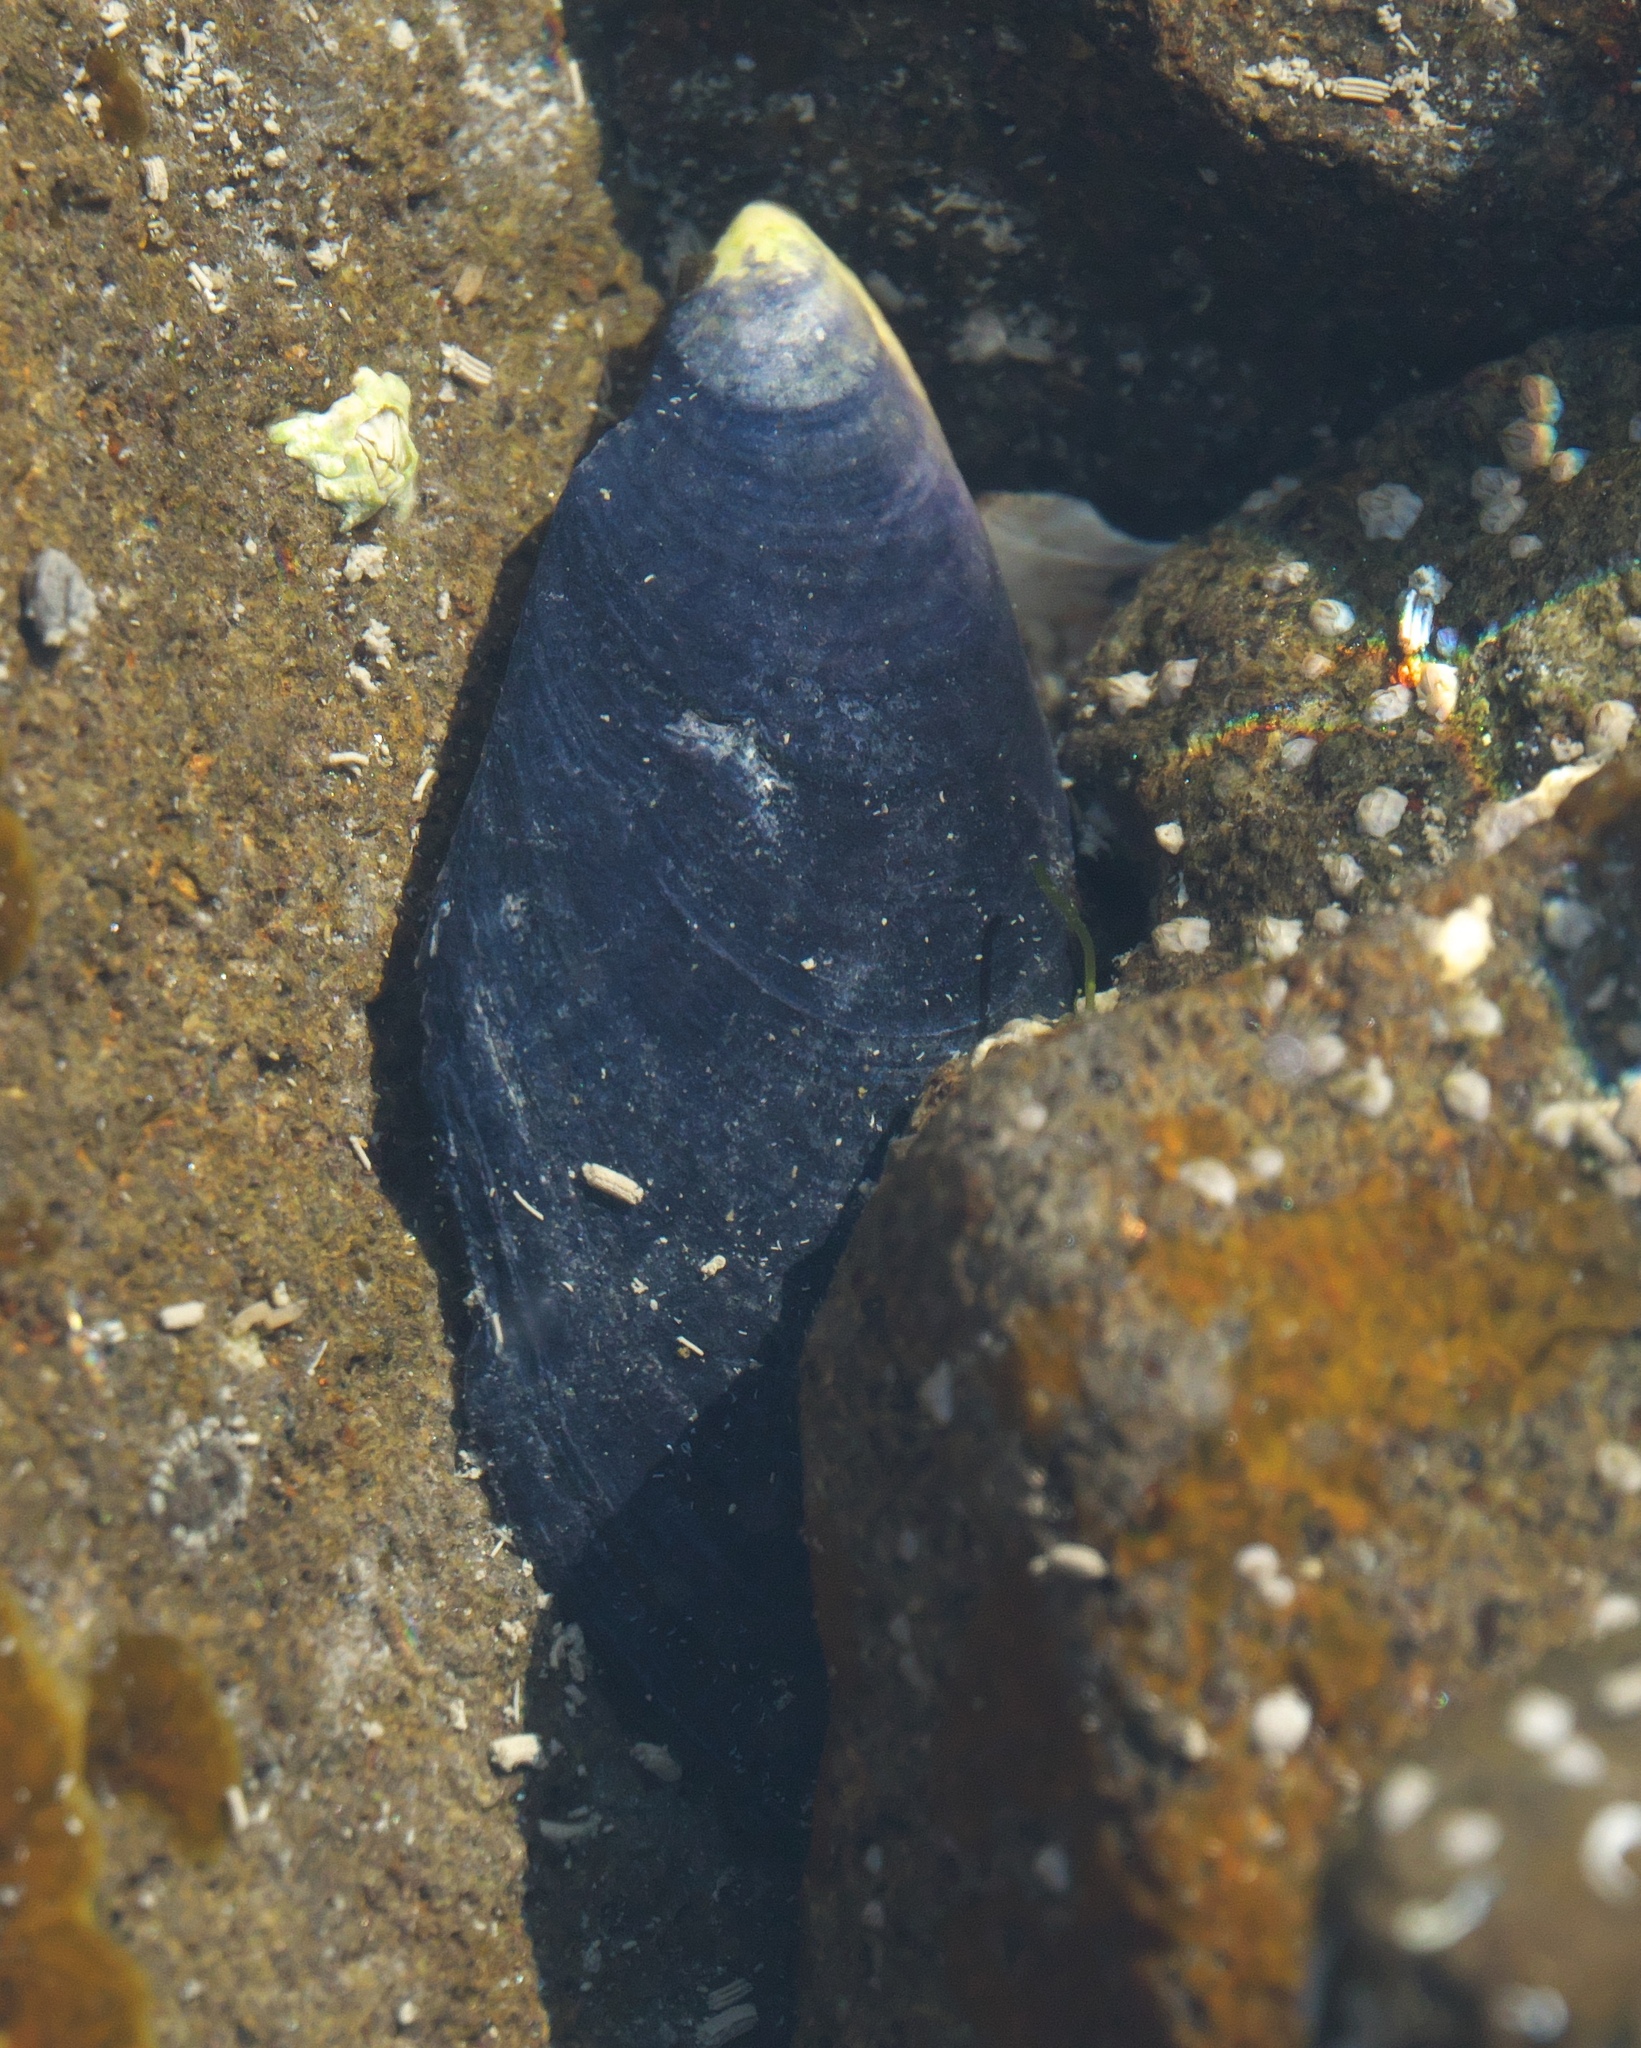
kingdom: Animalia
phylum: Mollusca
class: Bivalvia
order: Mytilida
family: Mytilidae
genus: Mytilus
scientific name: Mytilus planulatus
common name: Australian mussel
